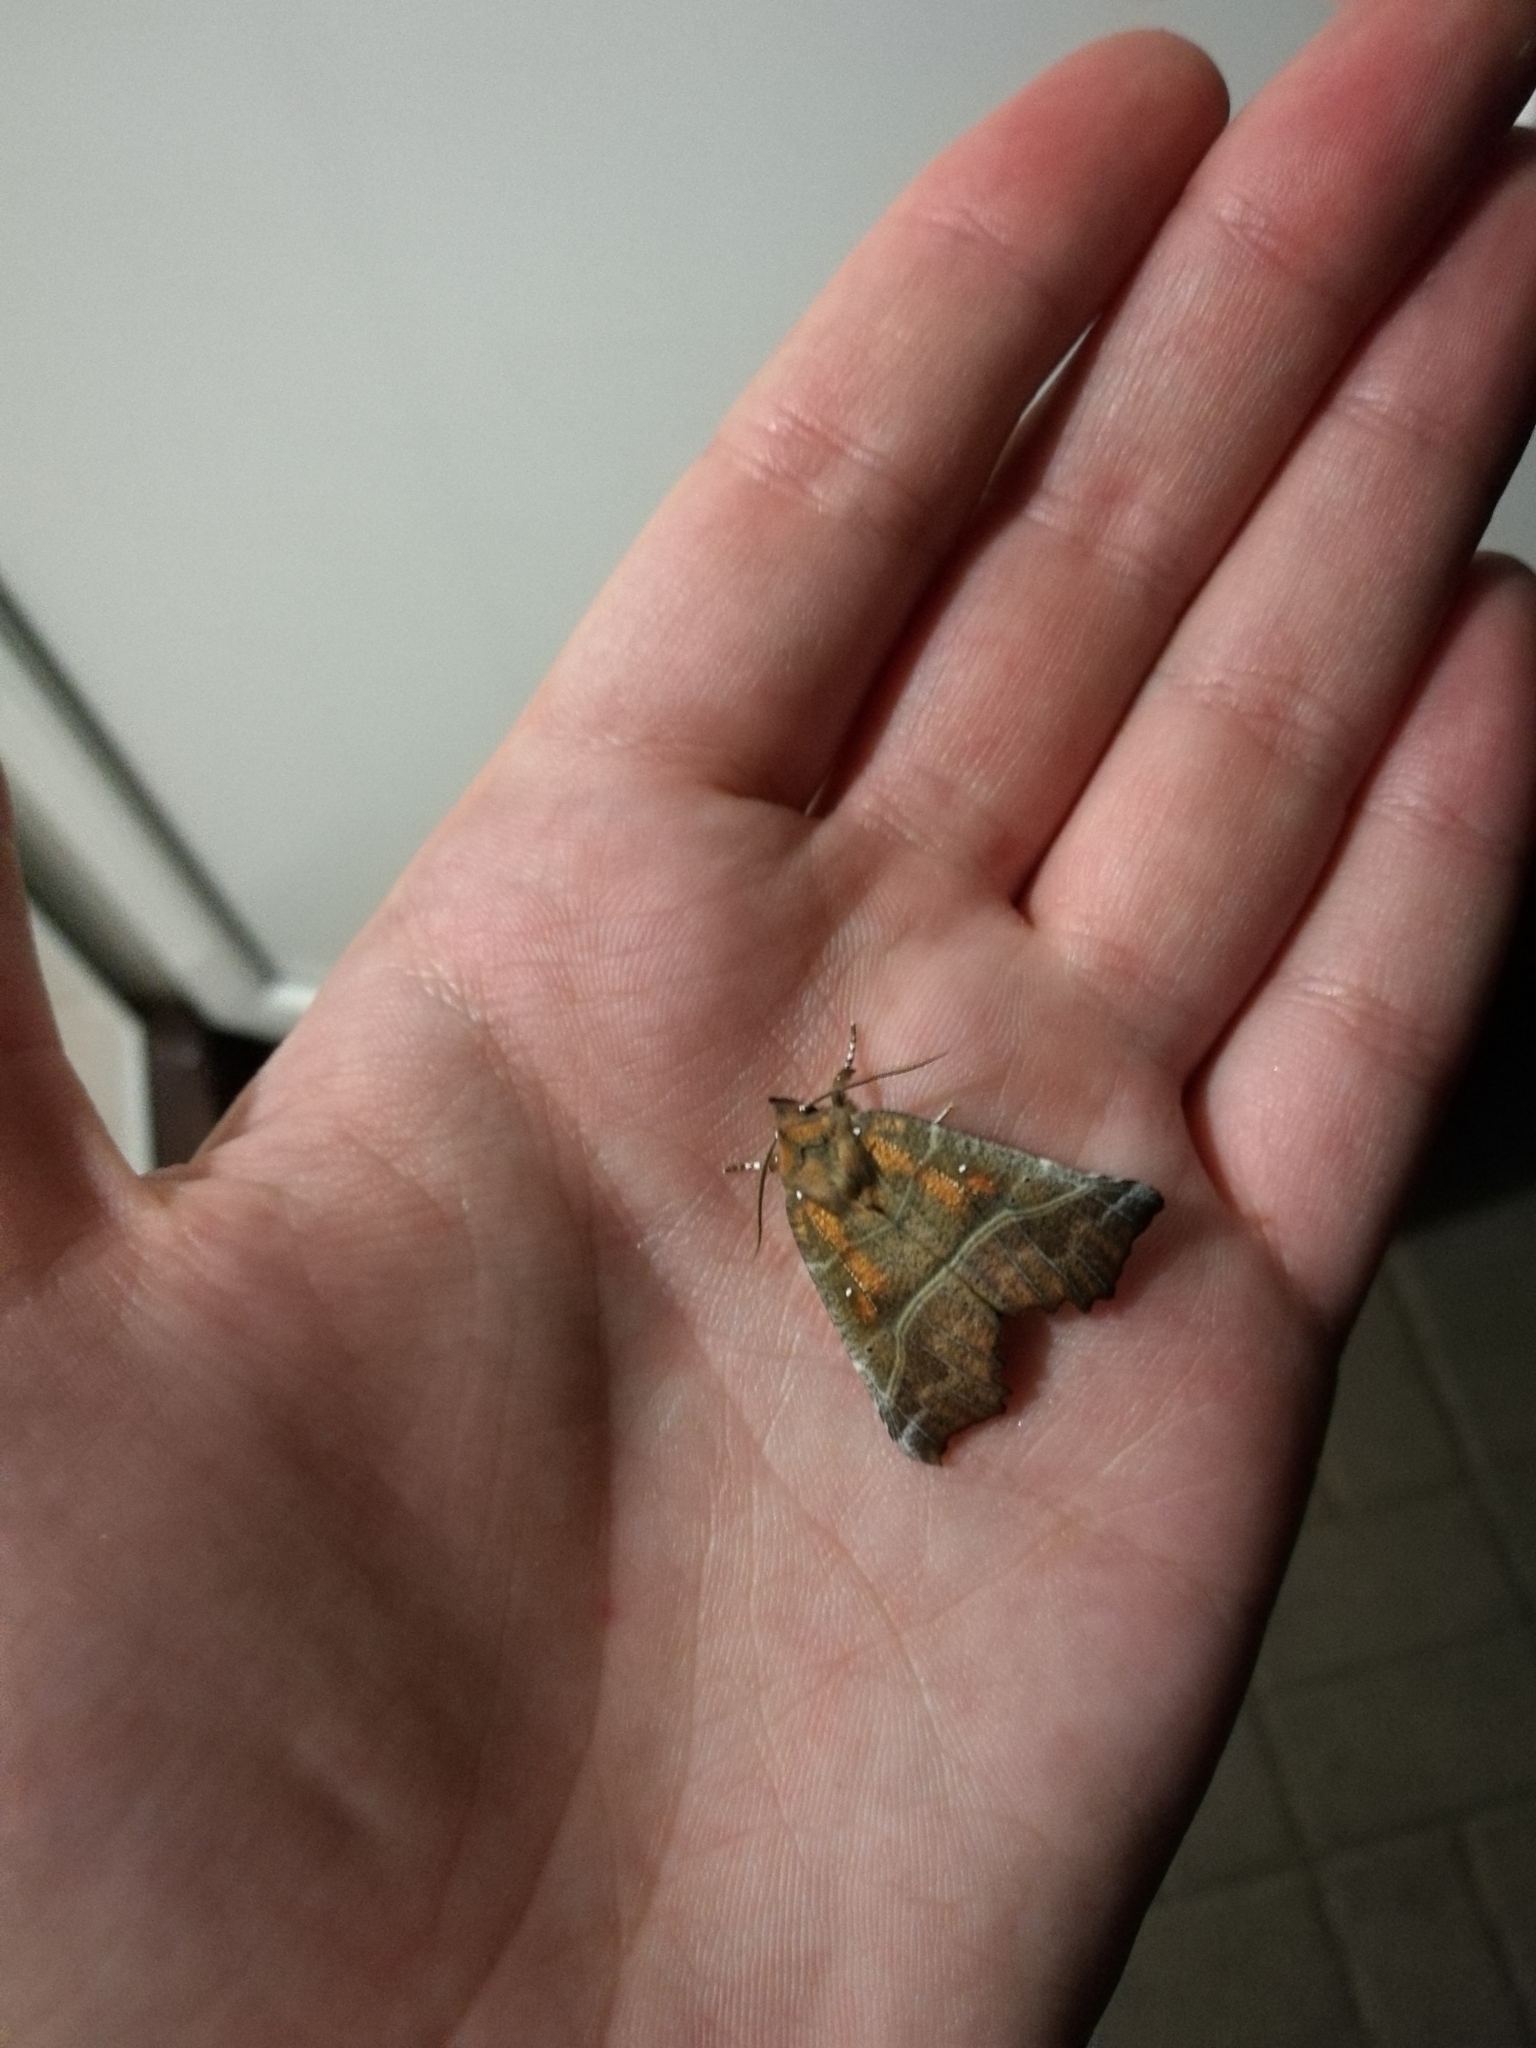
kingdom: Animalia
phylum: Arthropoda
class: Insecta
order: Lepidoptera
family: Erebidae
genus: Scoliopteryx
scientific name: Scoliopteryx libatrix
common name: Herald
